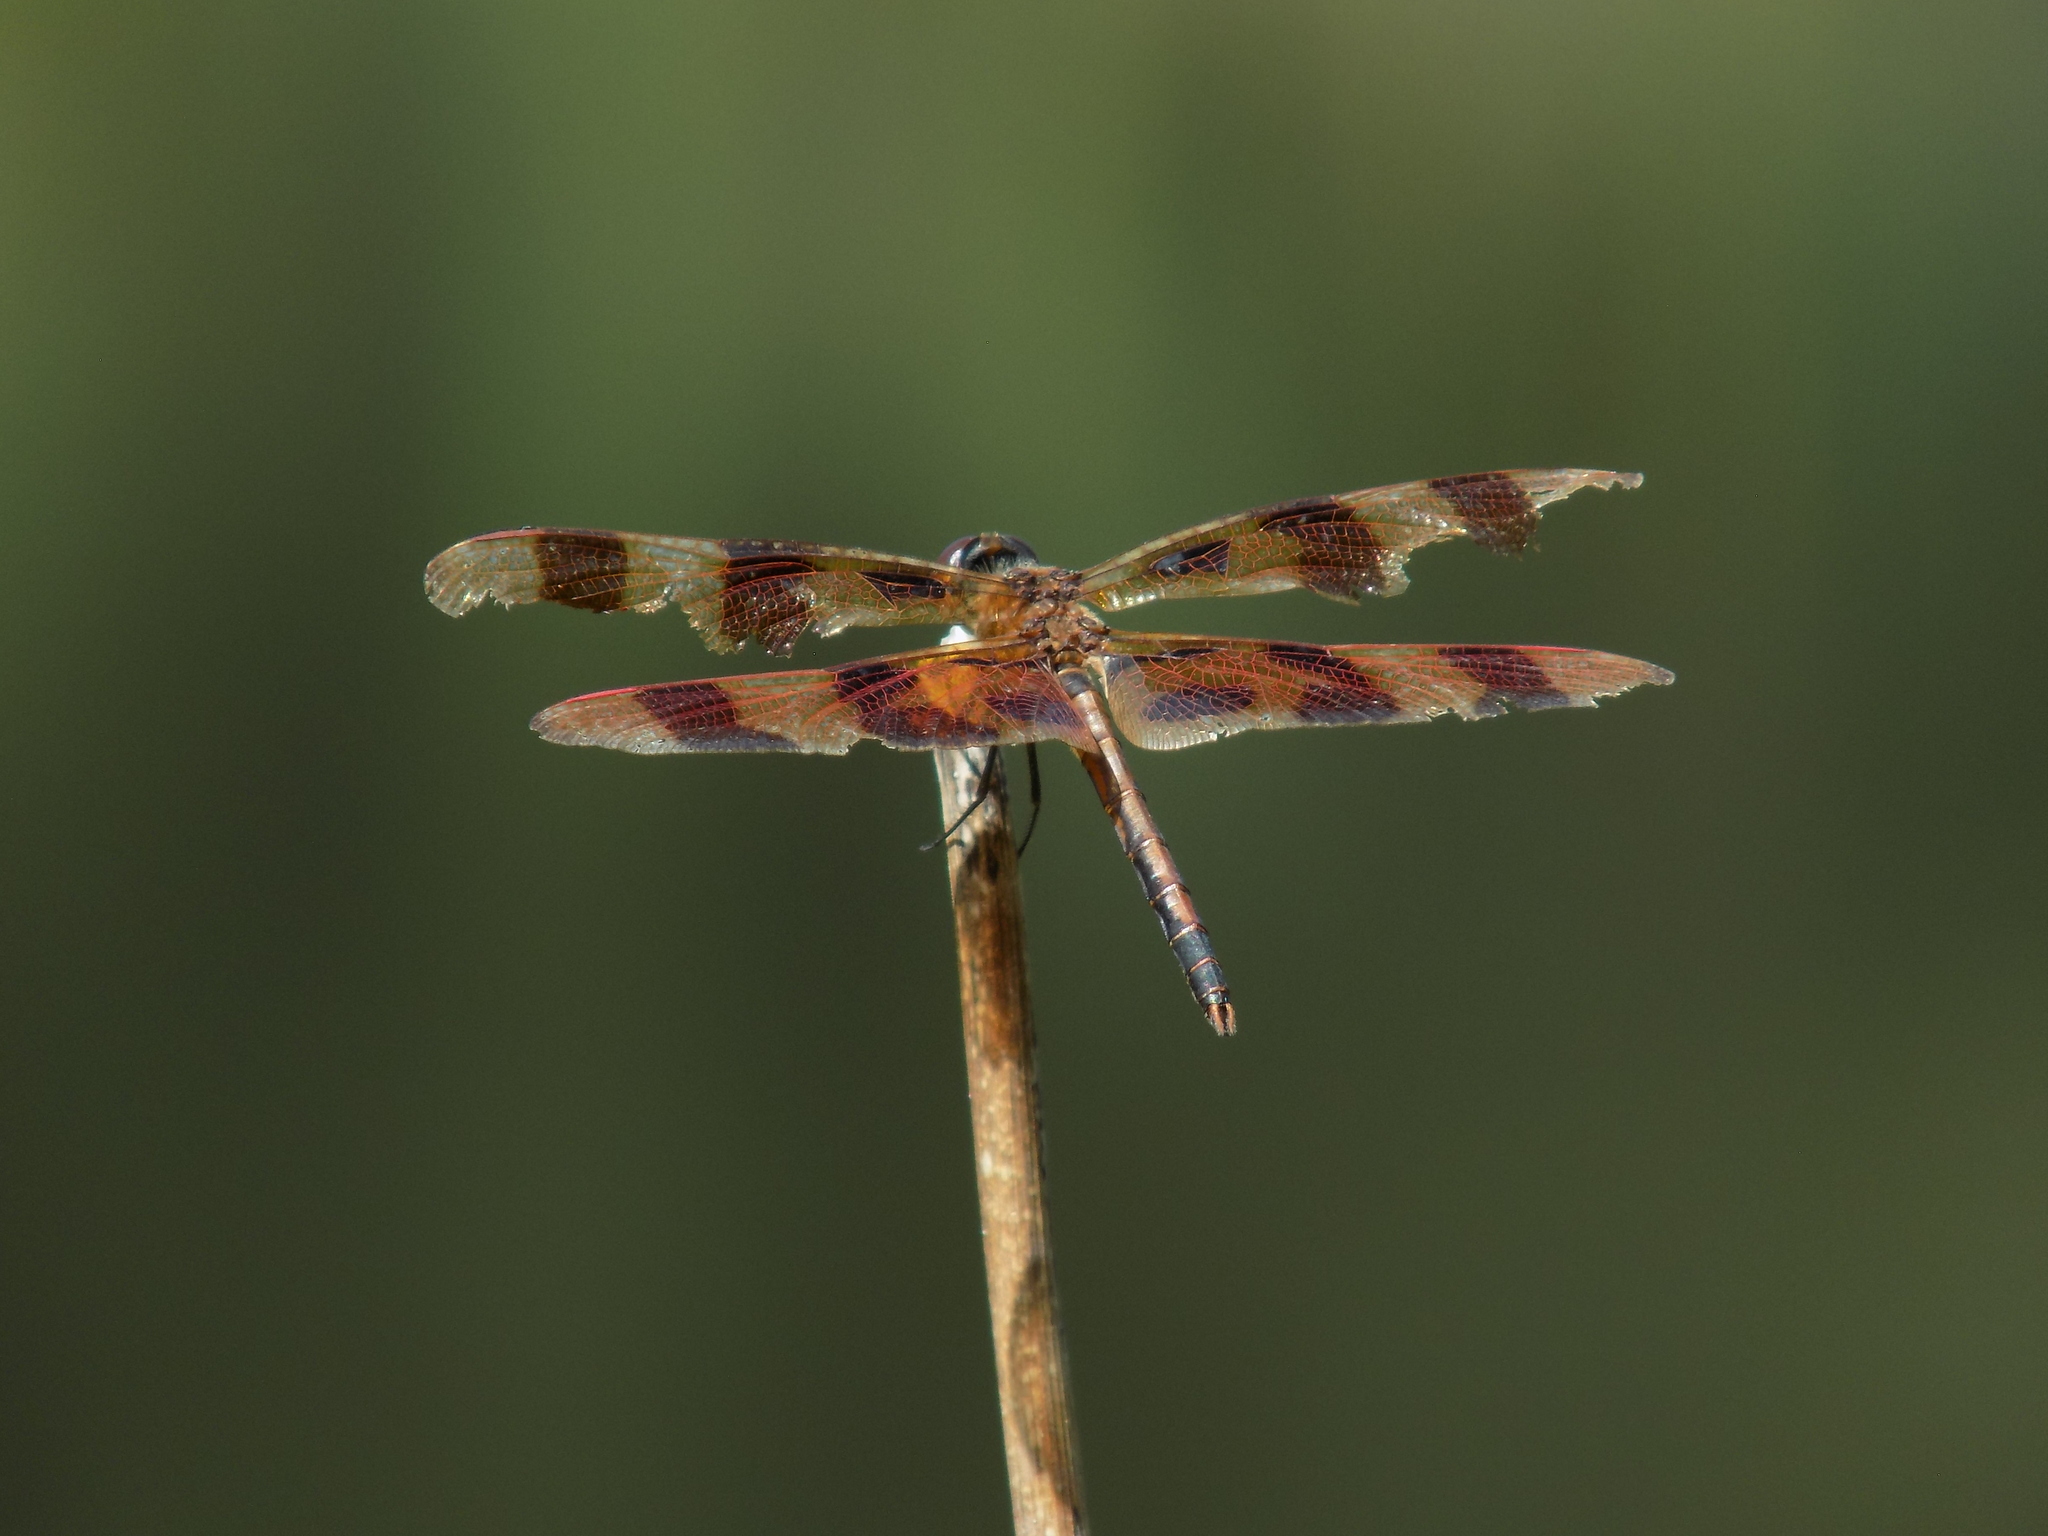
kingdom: Animalia
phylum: Arthropoda
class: Insecta
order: Odonata
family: Libellulidae
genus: Celithemis
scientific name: Celithemis eponina
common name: Halloween pennant
